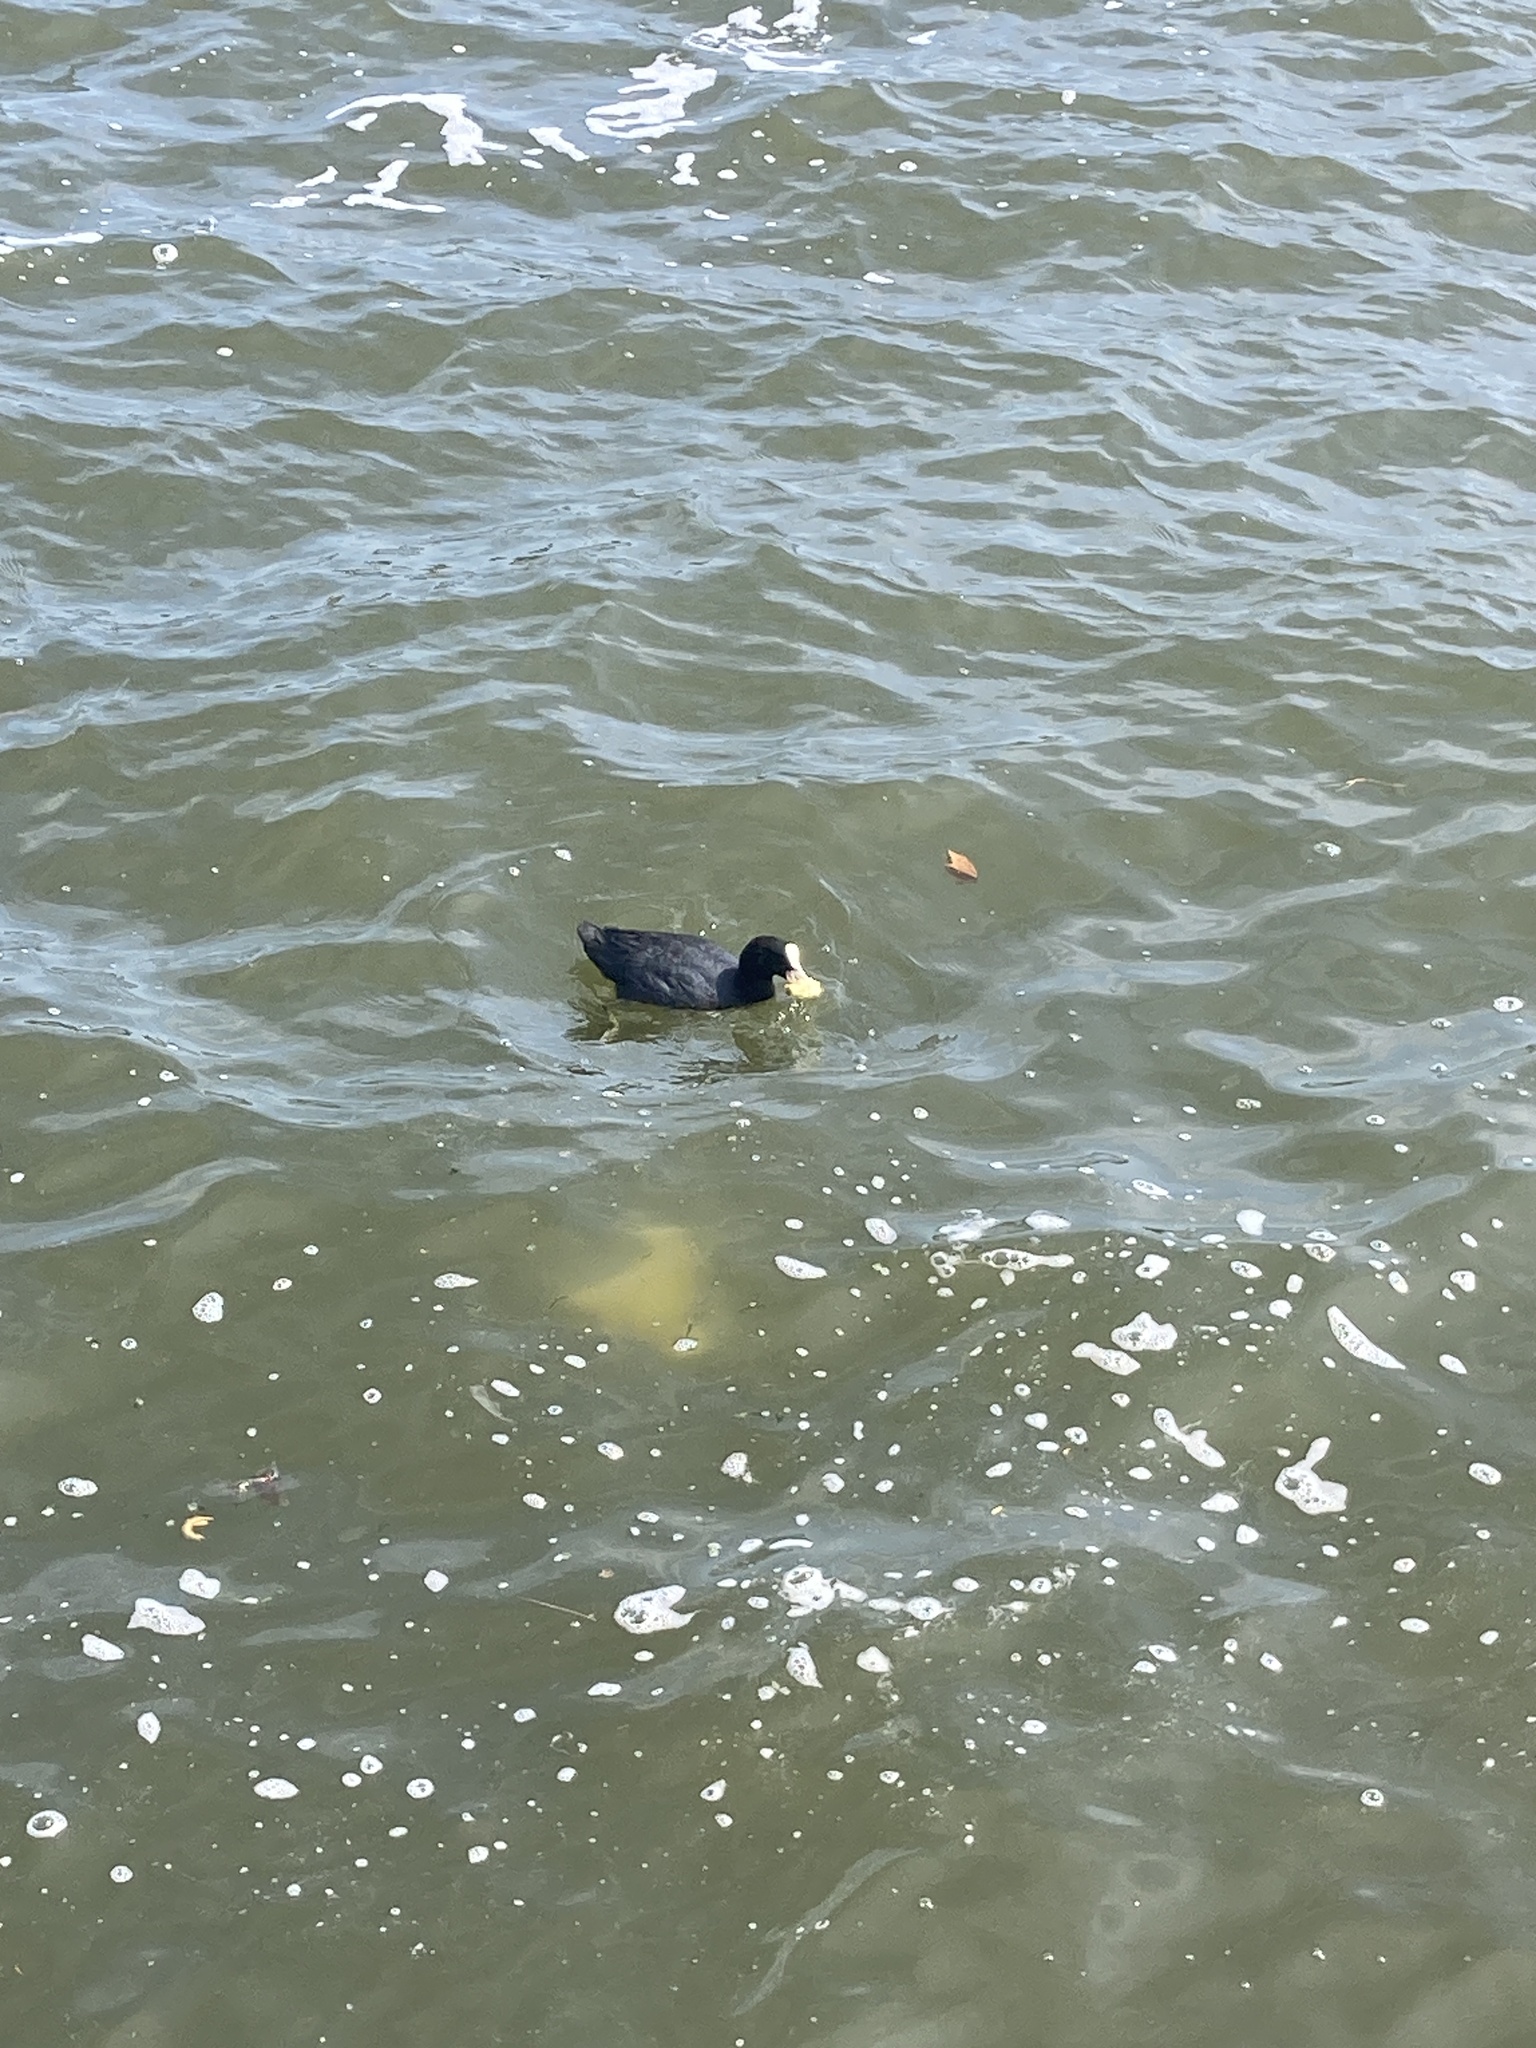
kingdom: Animalia
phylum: Chordata
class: Aves
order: Gruiformes
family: Rallidae
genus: Fulica
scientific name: Fulica atra
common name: Eurasian coot
